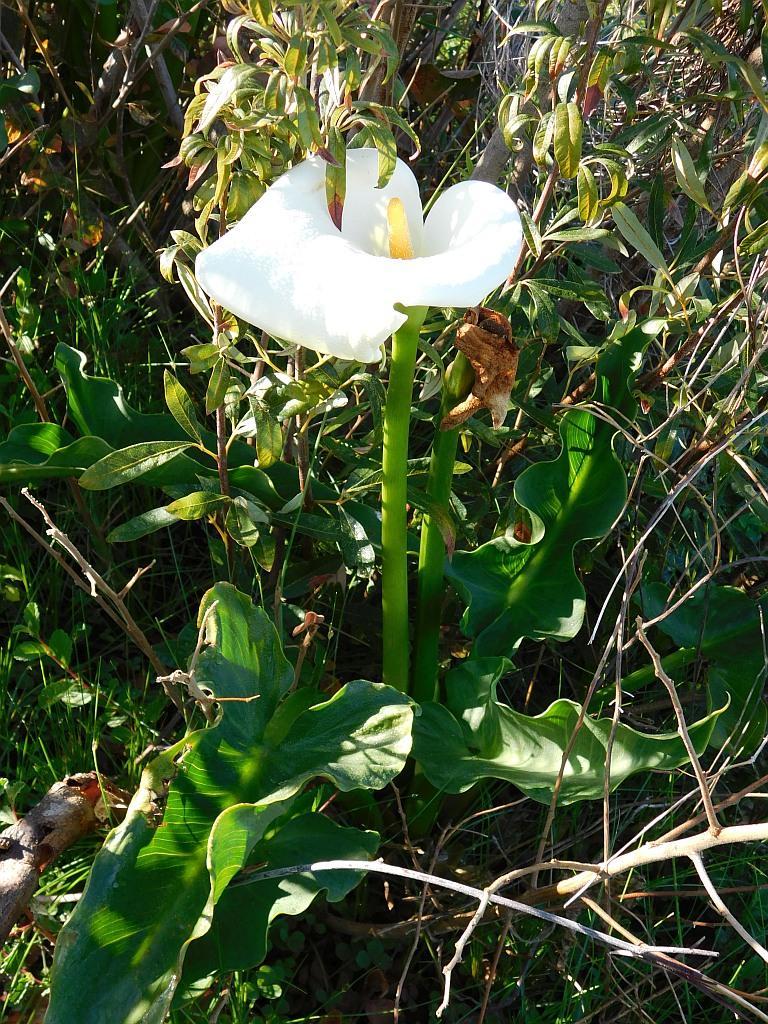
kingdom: Plantae
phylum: Tracheophyta
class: Liliopsida
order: Alismatales
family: Araceae
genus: Zantedeschia
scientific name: Zantedeschia aethiopica
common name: Altar-lily
